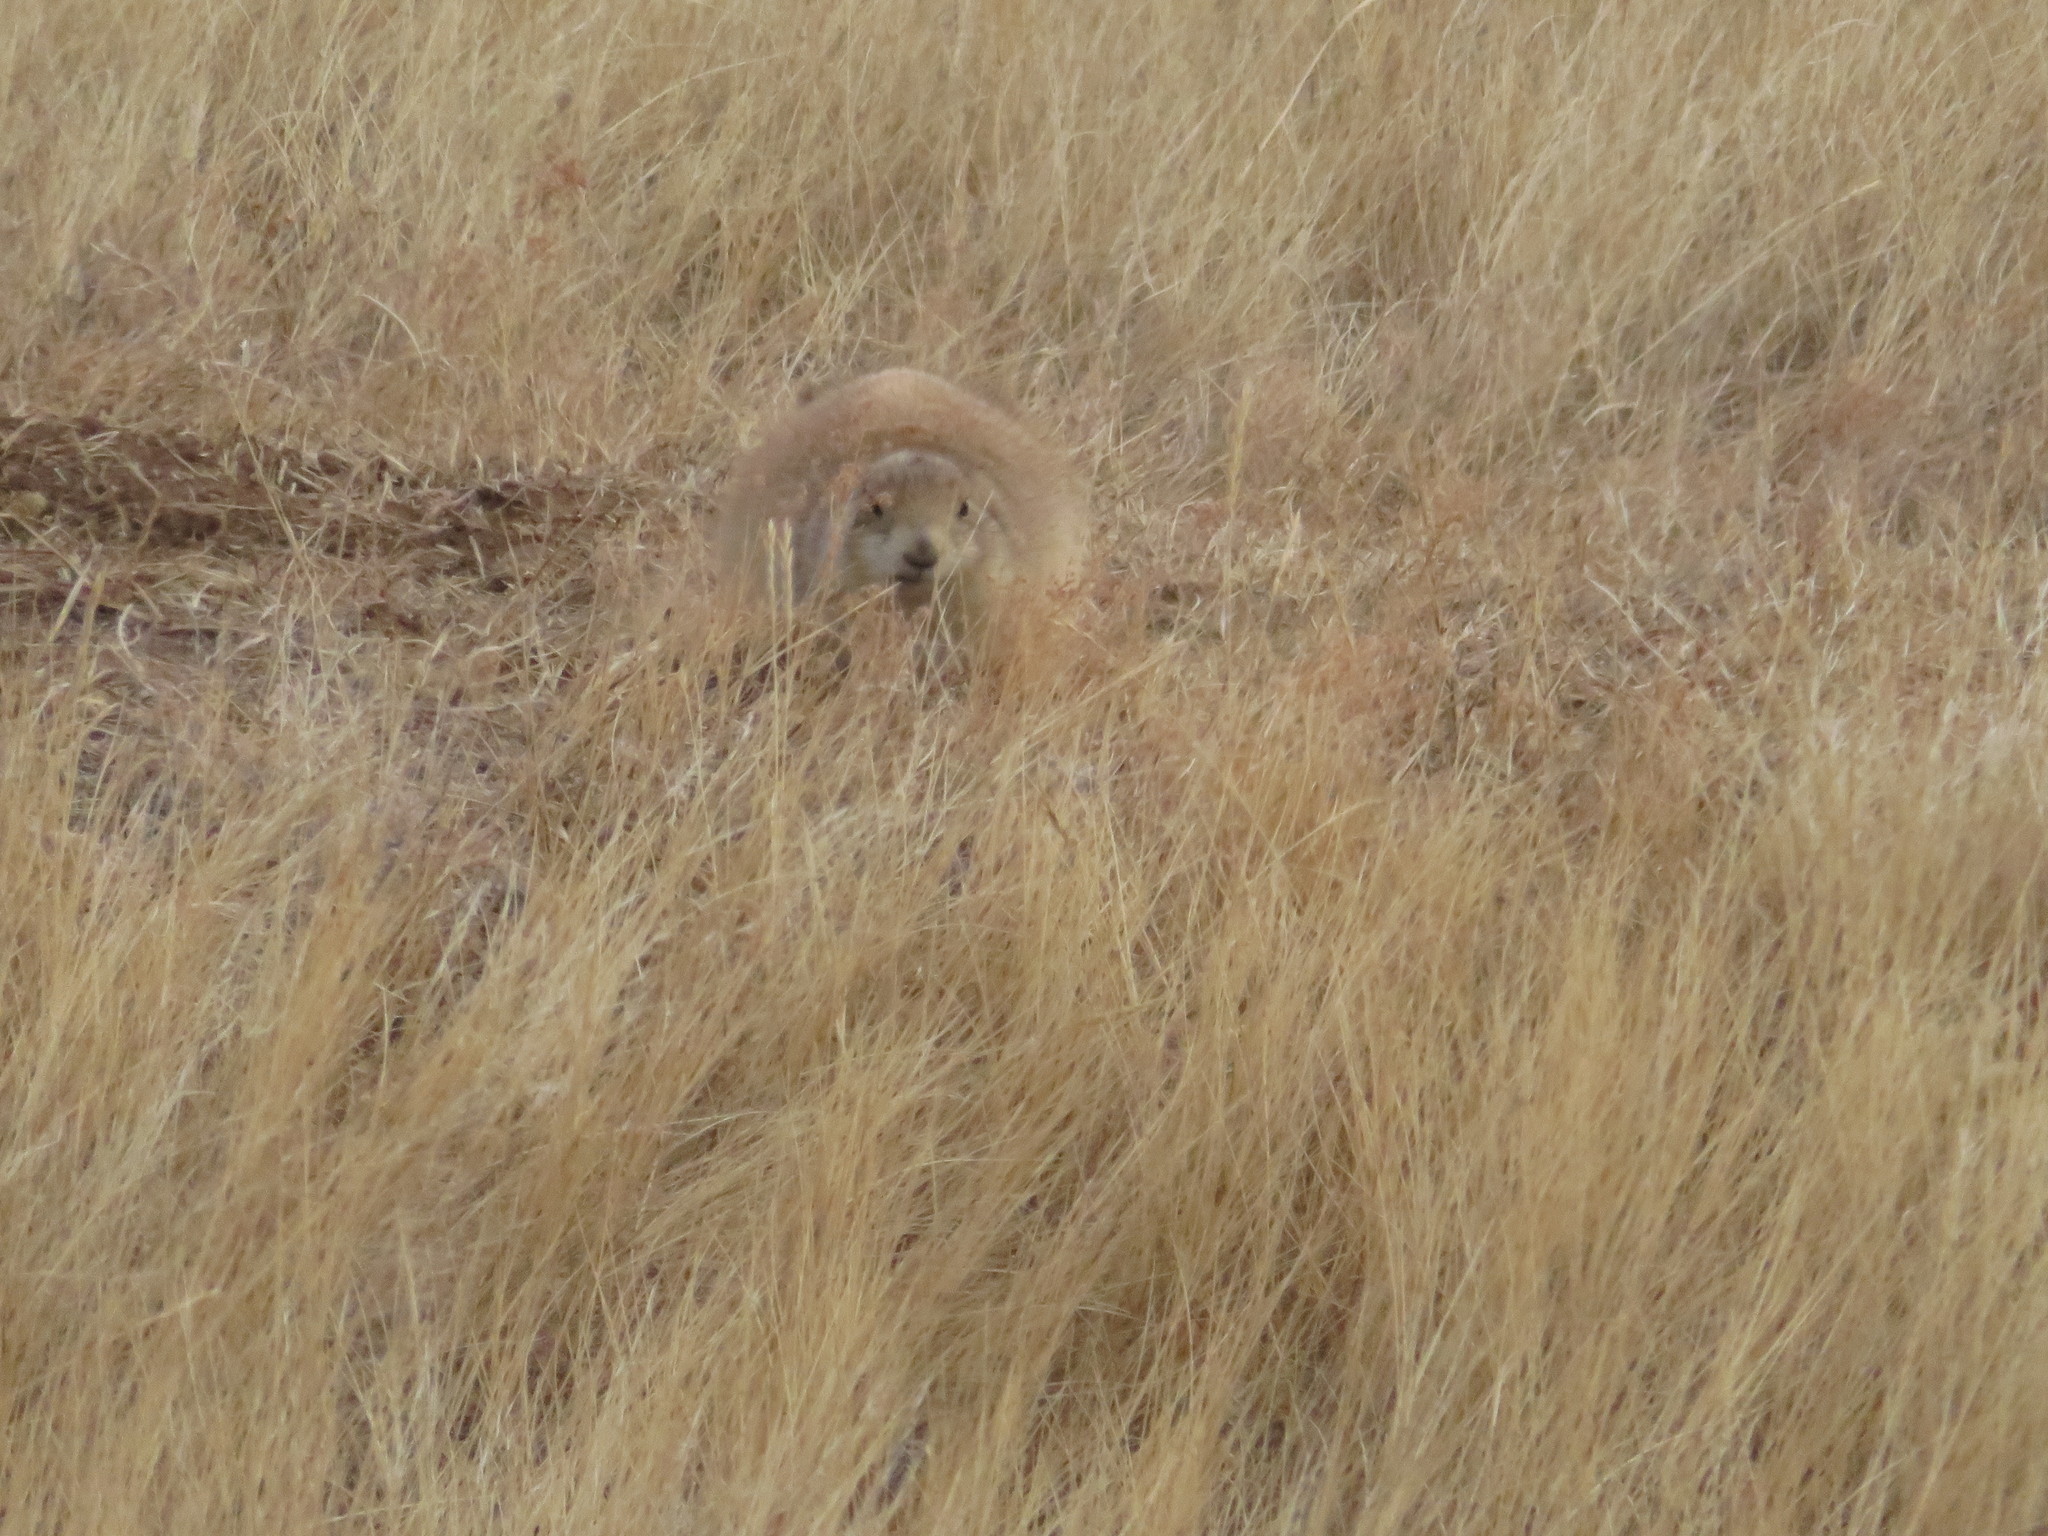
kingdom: Animalia
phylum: Chordata
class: Mammalia
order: Rodentia
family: Sciuridae
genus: Cynomys
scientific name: Cynomys ludovicianus
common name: Black-tailed prairie dog
